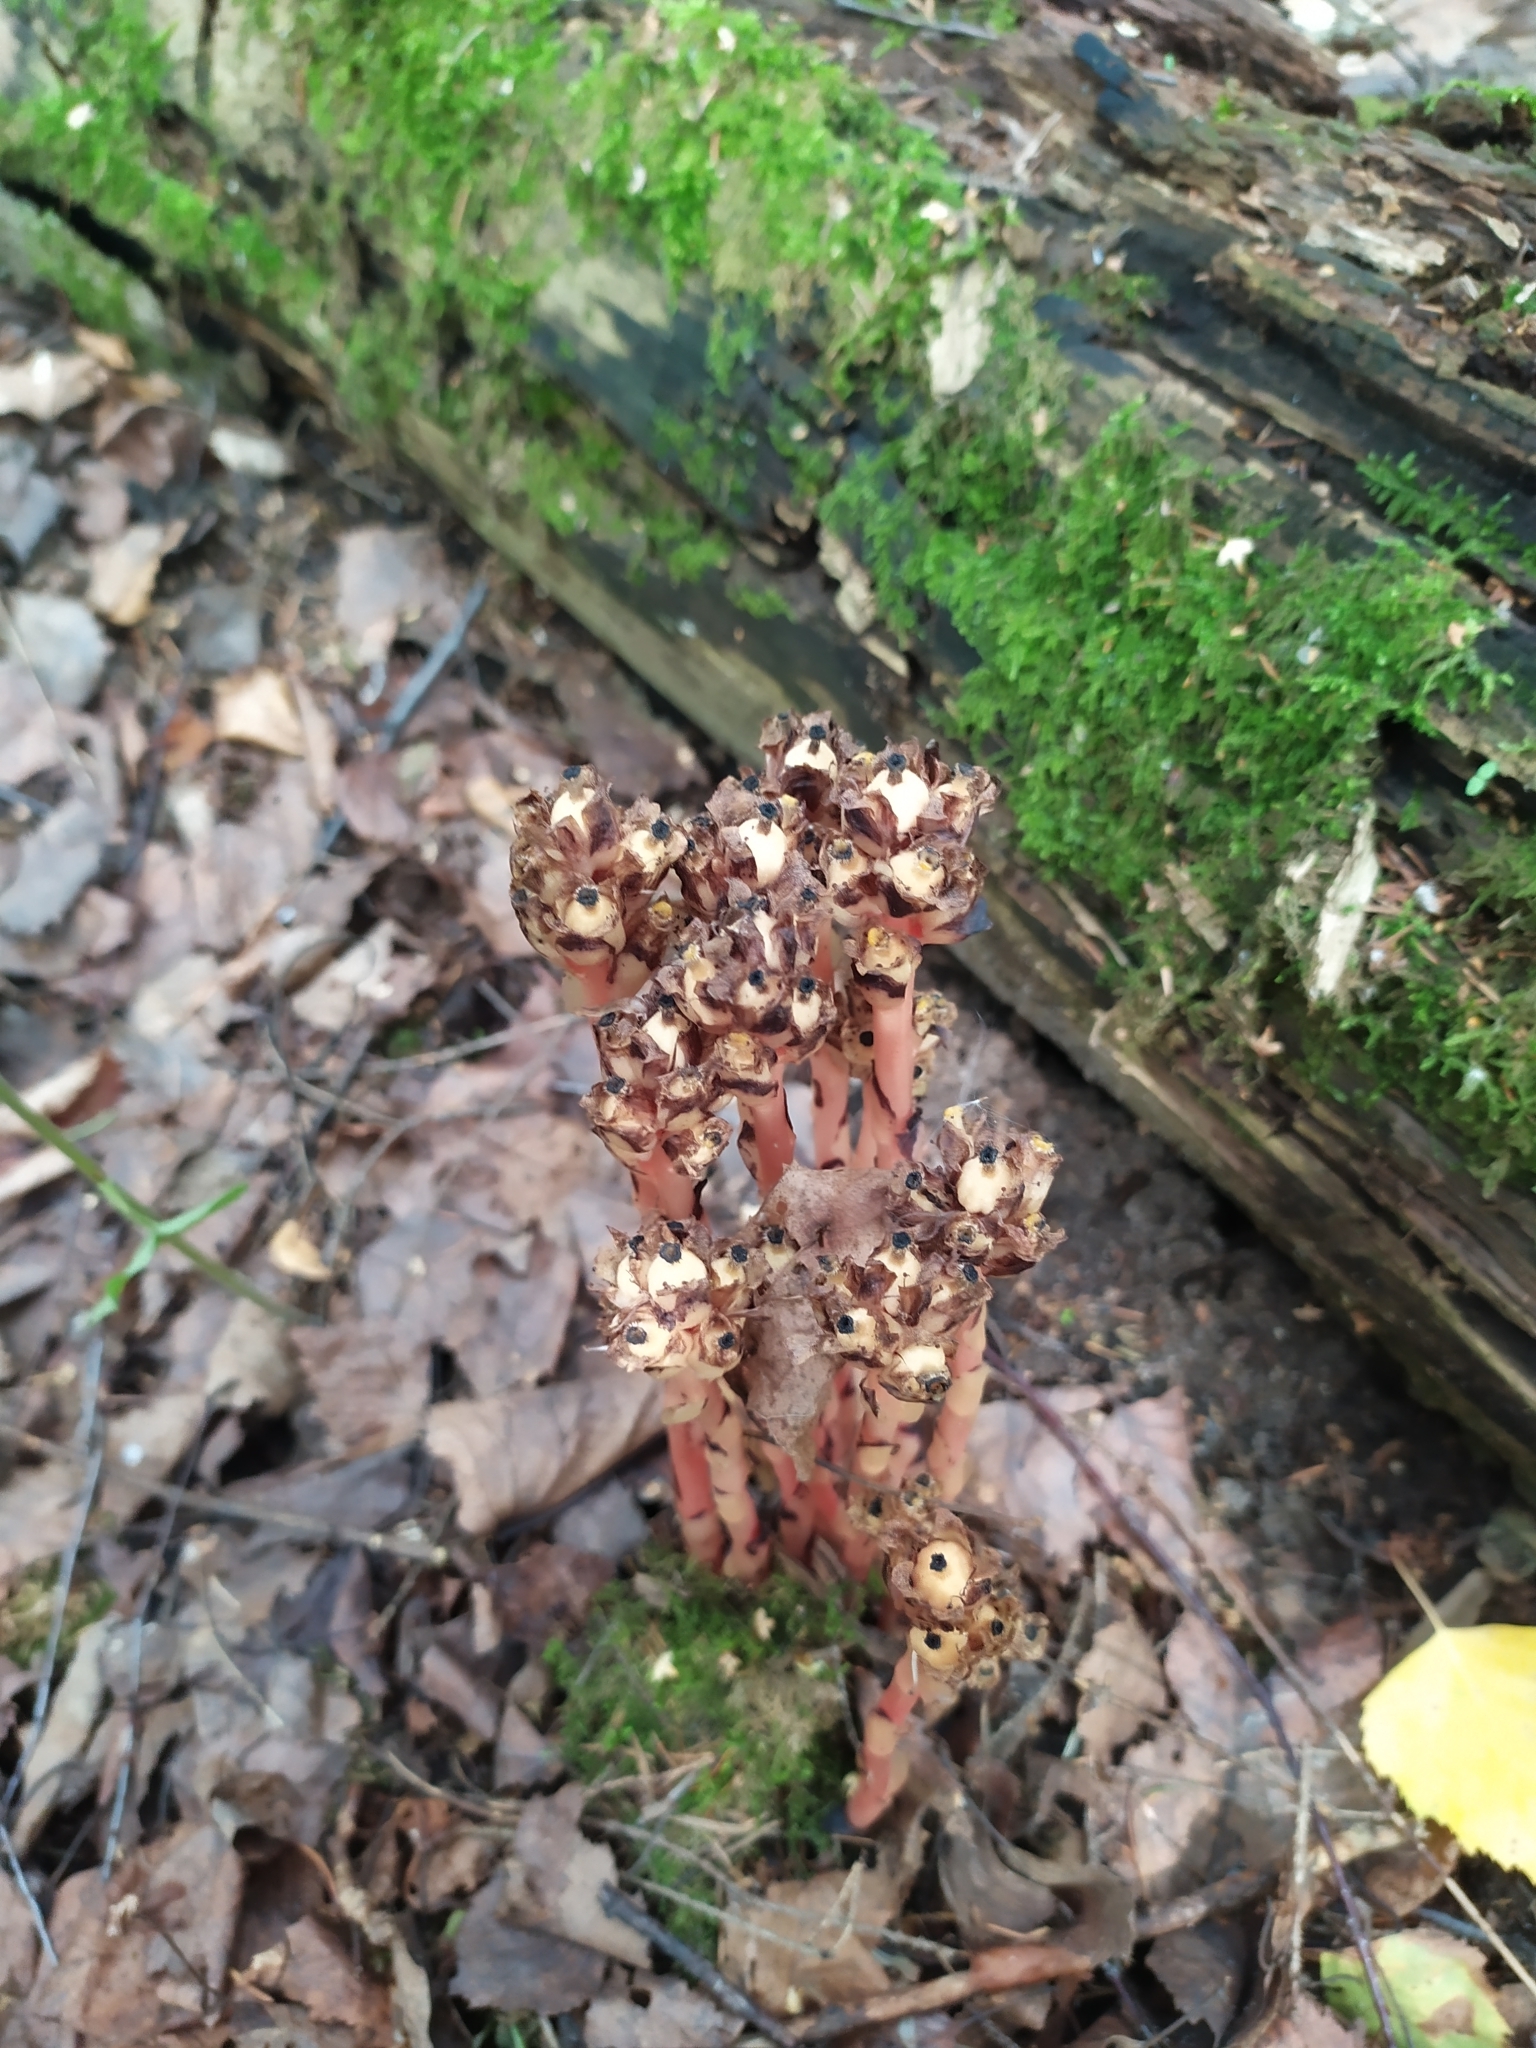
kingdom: Plantae
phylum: Tracheophyta
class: Magnoliopsida
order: Ericales
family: Ericaceae
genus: Hypopitys
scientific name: Hypopitys monotropa
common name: Yellow bird's-nest
